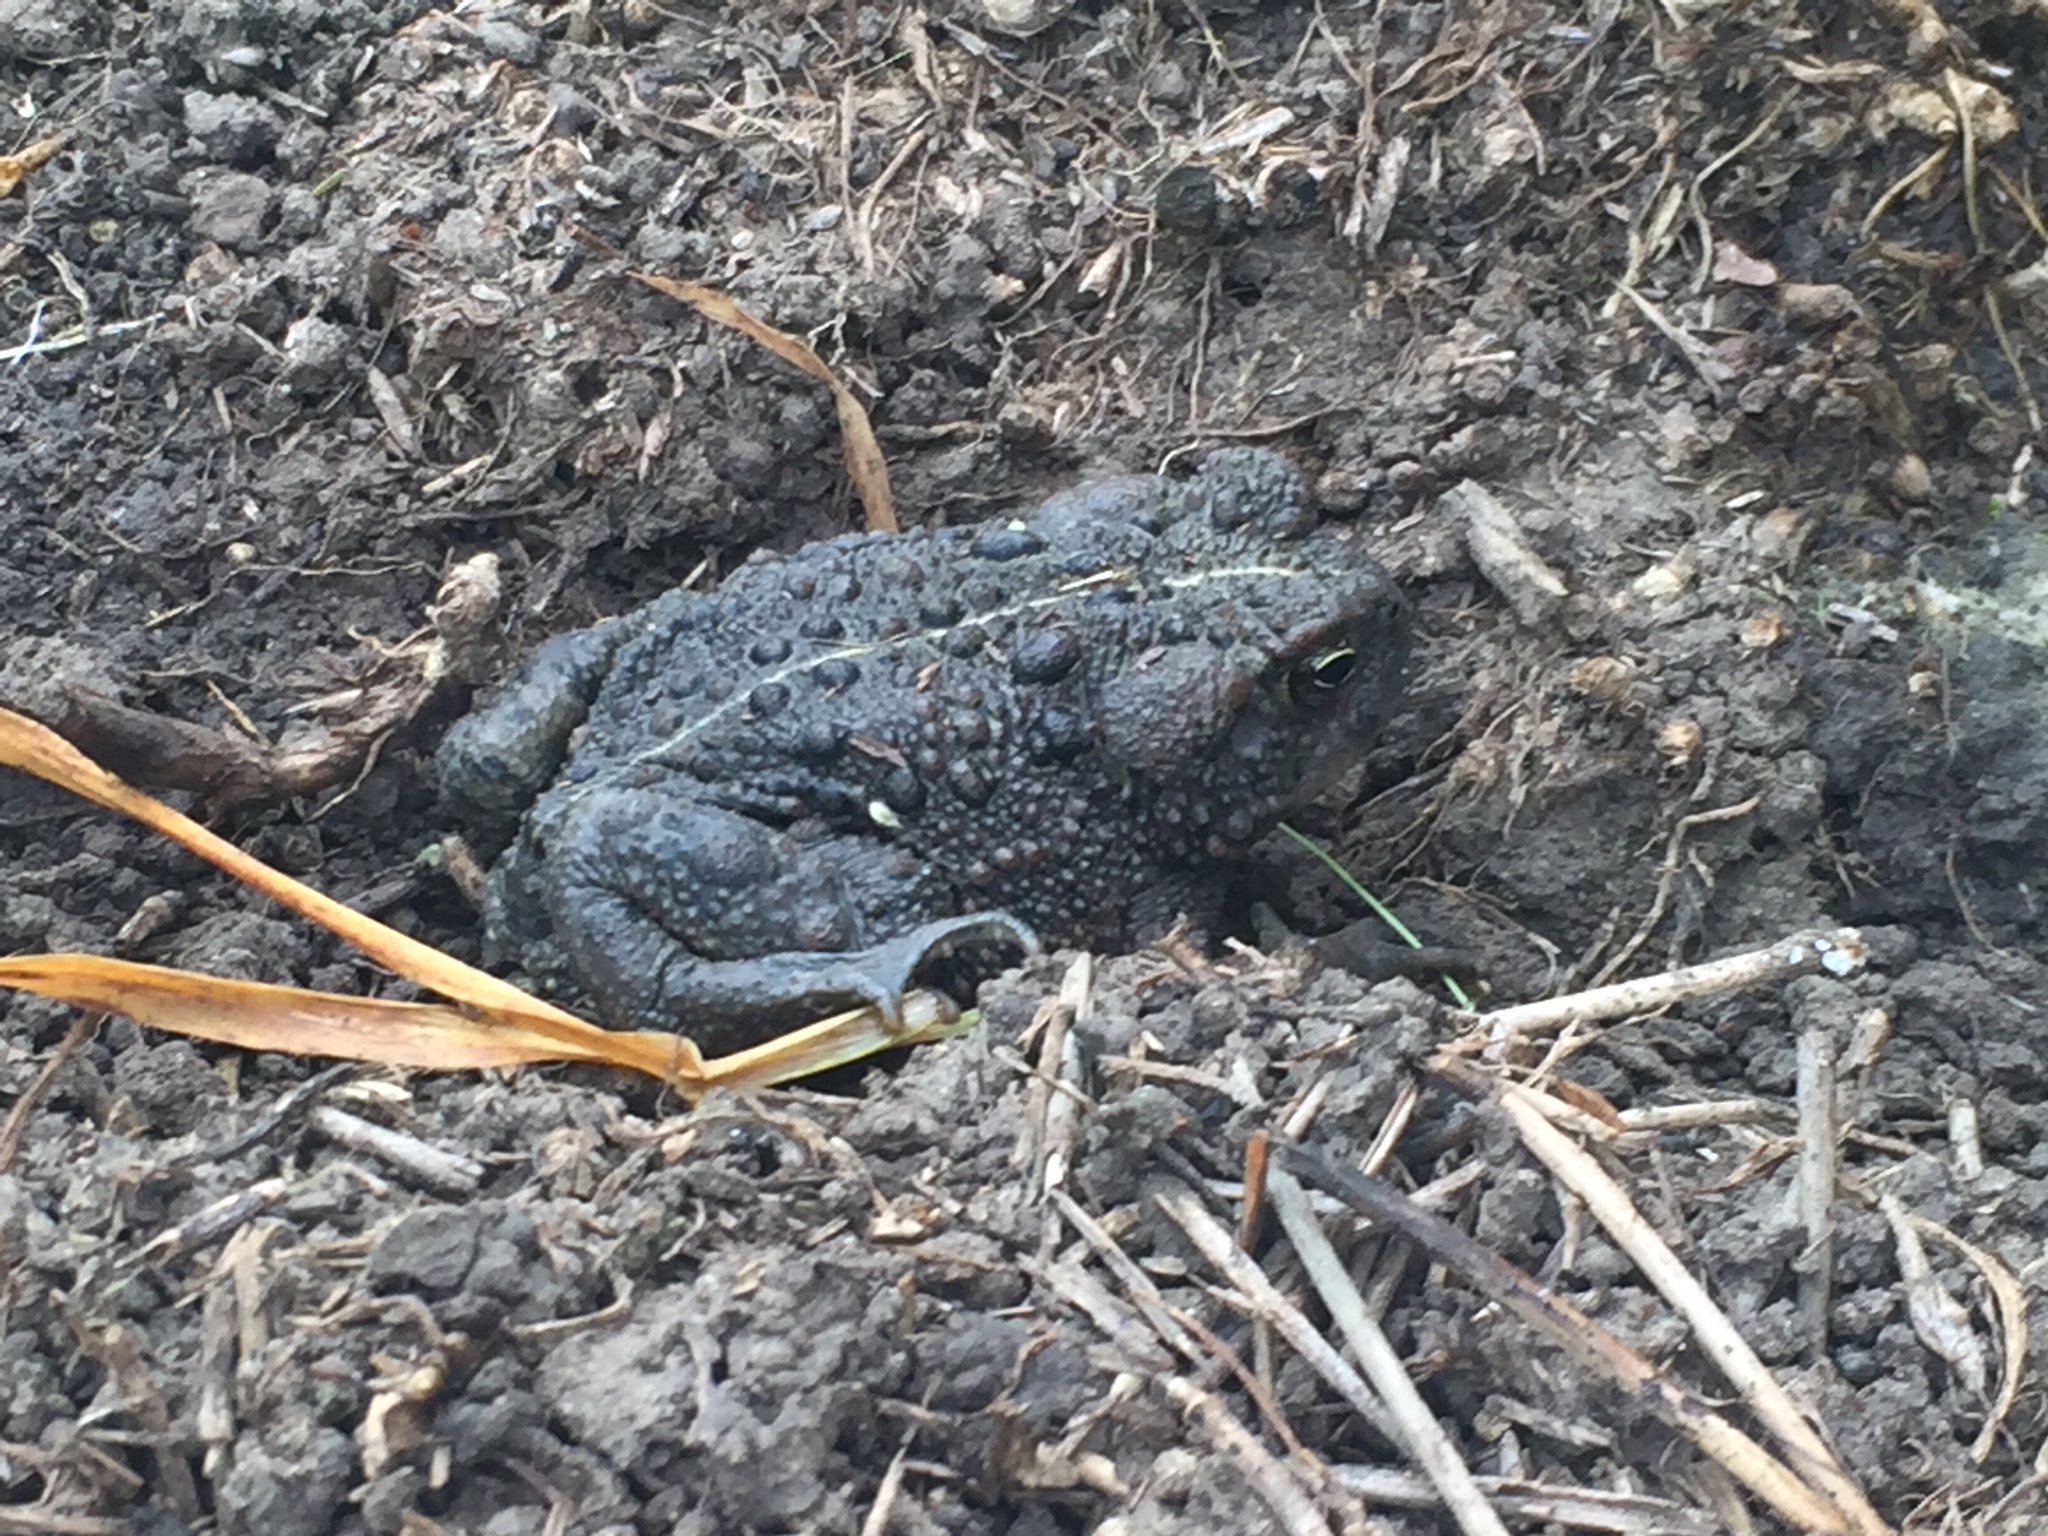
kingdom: Animalia
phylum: Chordata
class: Amphibia
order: Anura
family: Bufonidae
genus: Anaxyrus
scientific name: Anaxyrus boreas
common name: Western toad
